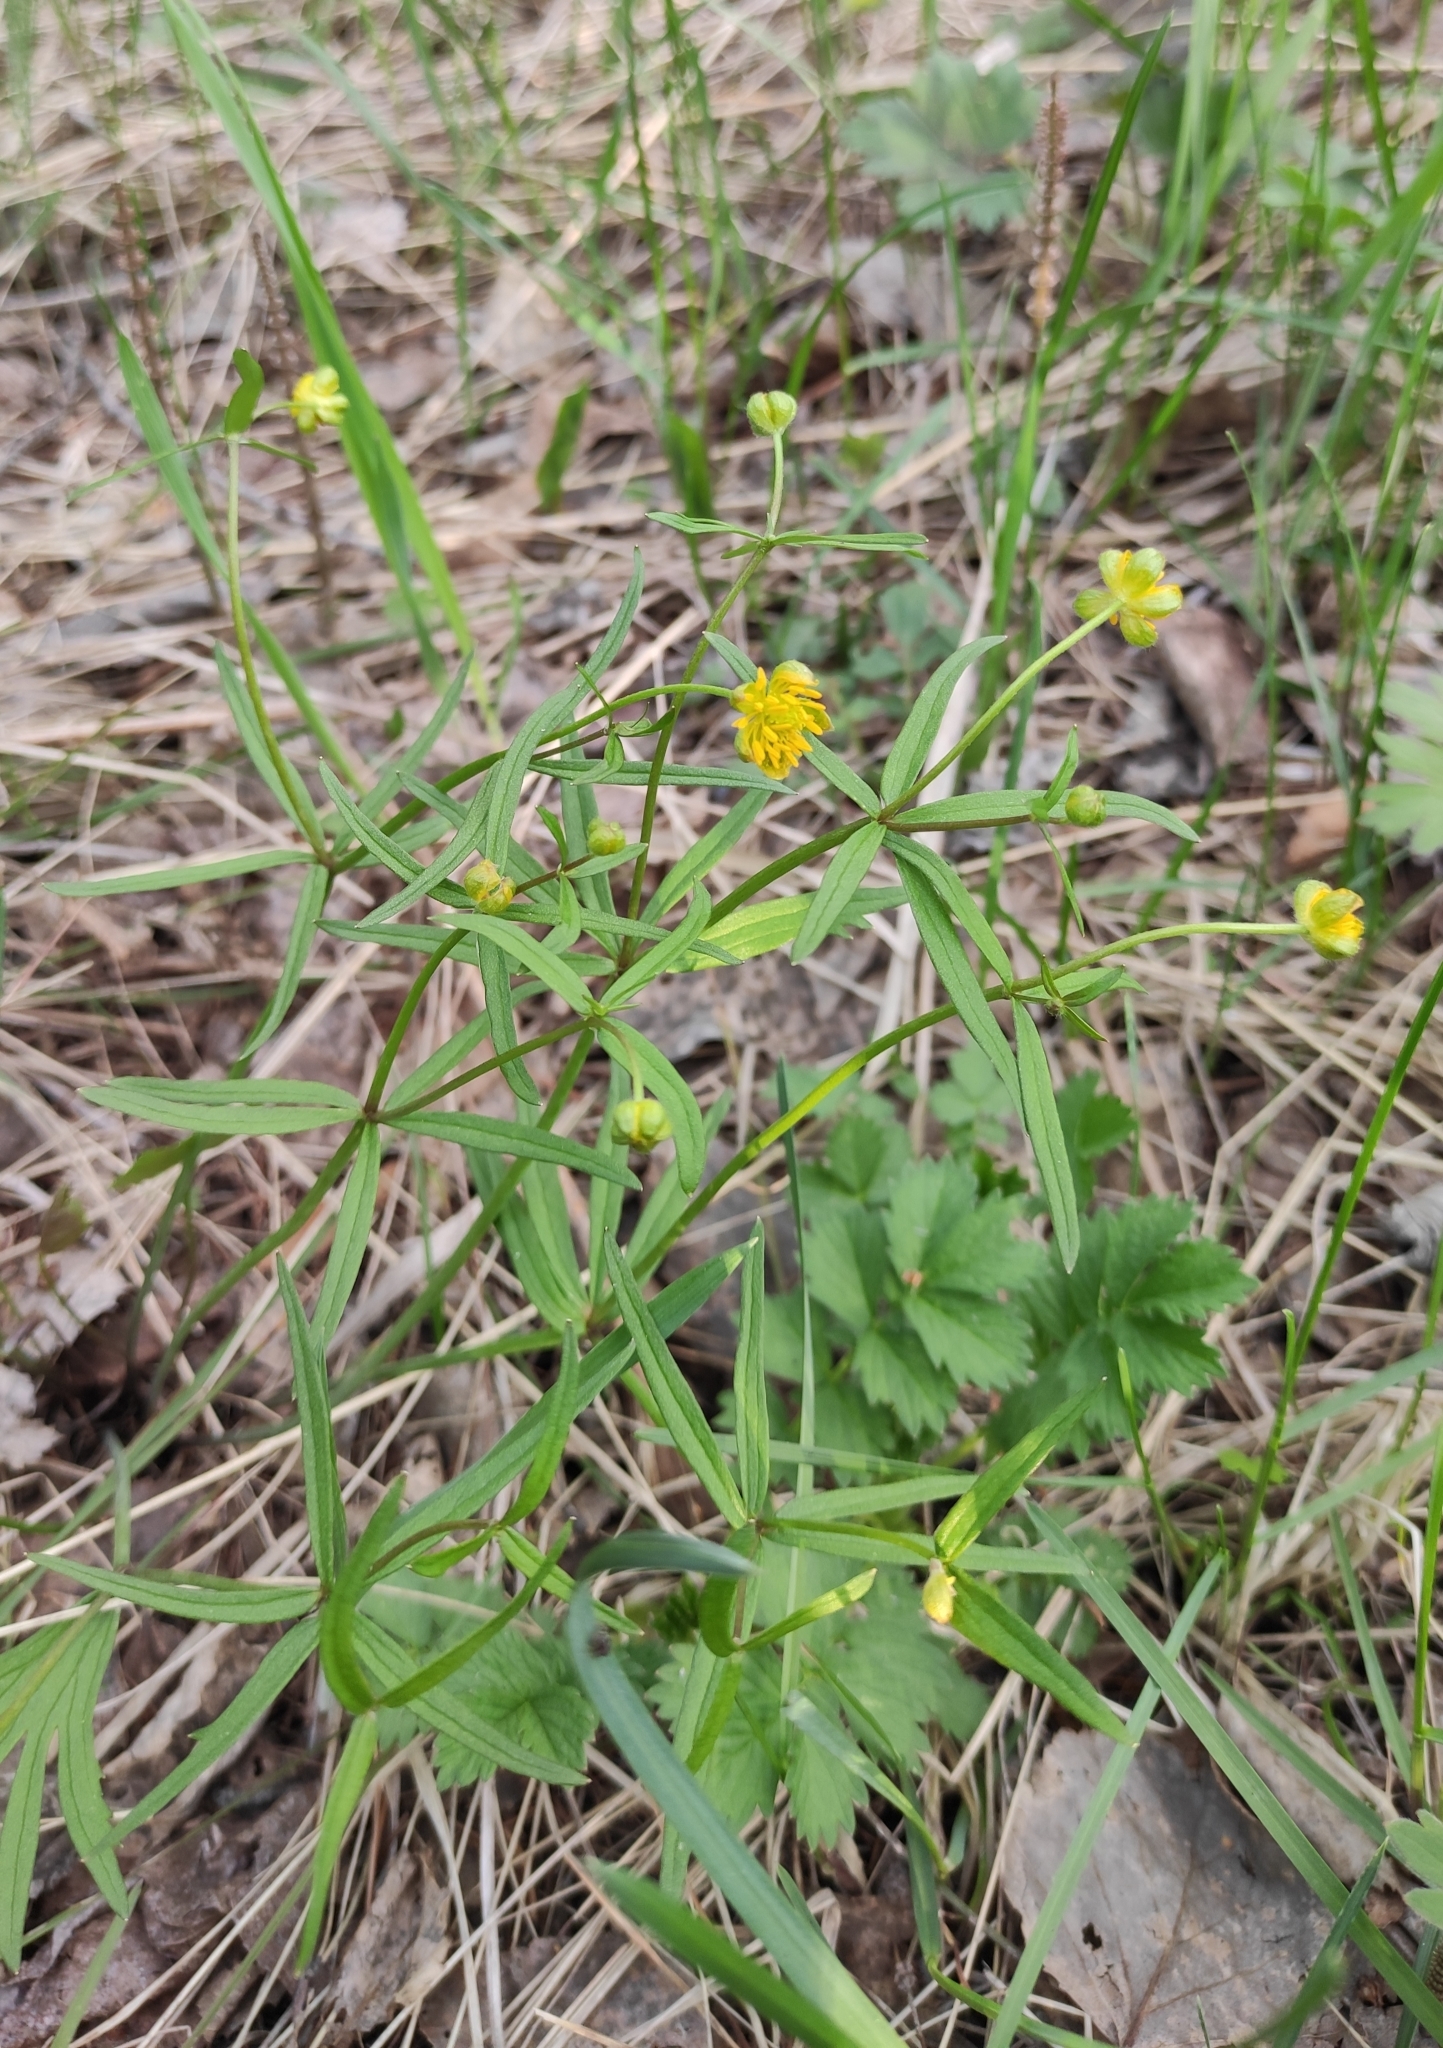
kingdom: Plantae
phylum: Tracheophyta
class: Magnoliopsida
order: Ranunculales
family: Ranunculaceae
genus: Ranunculus
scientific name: Ranunculus monophyllus
